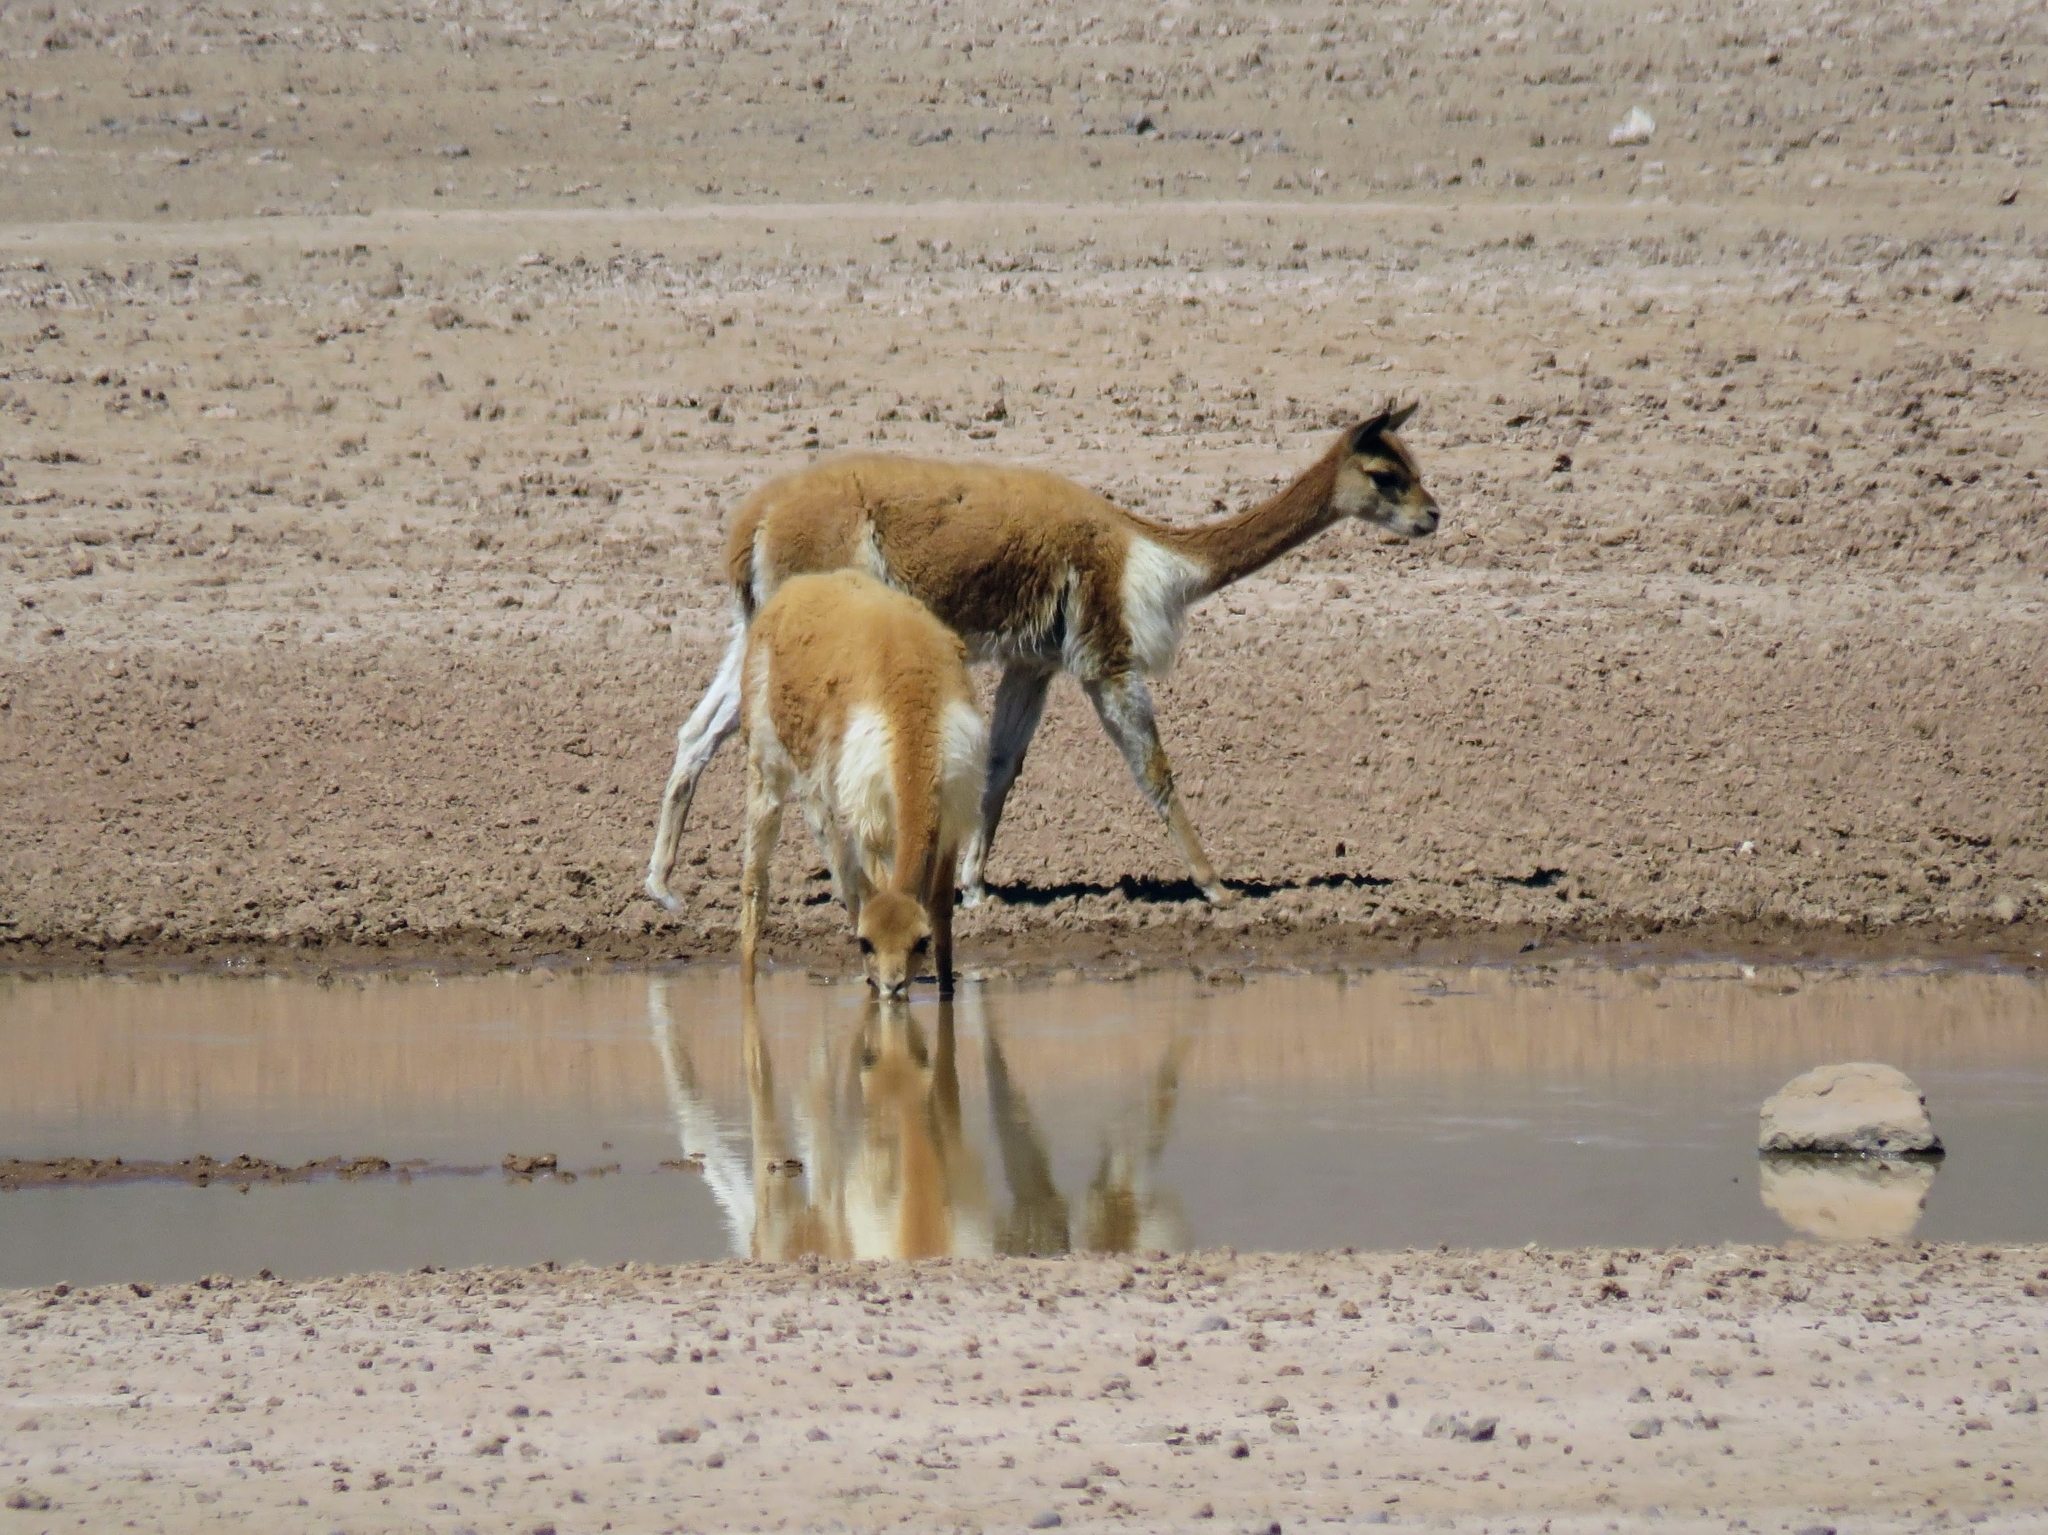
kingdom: Animalia
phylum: Chordata
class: Mammalia
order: Artiodactyla
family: Camelidae
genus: Vicugna
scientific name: Vicugna vicugna
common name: Vicugna
